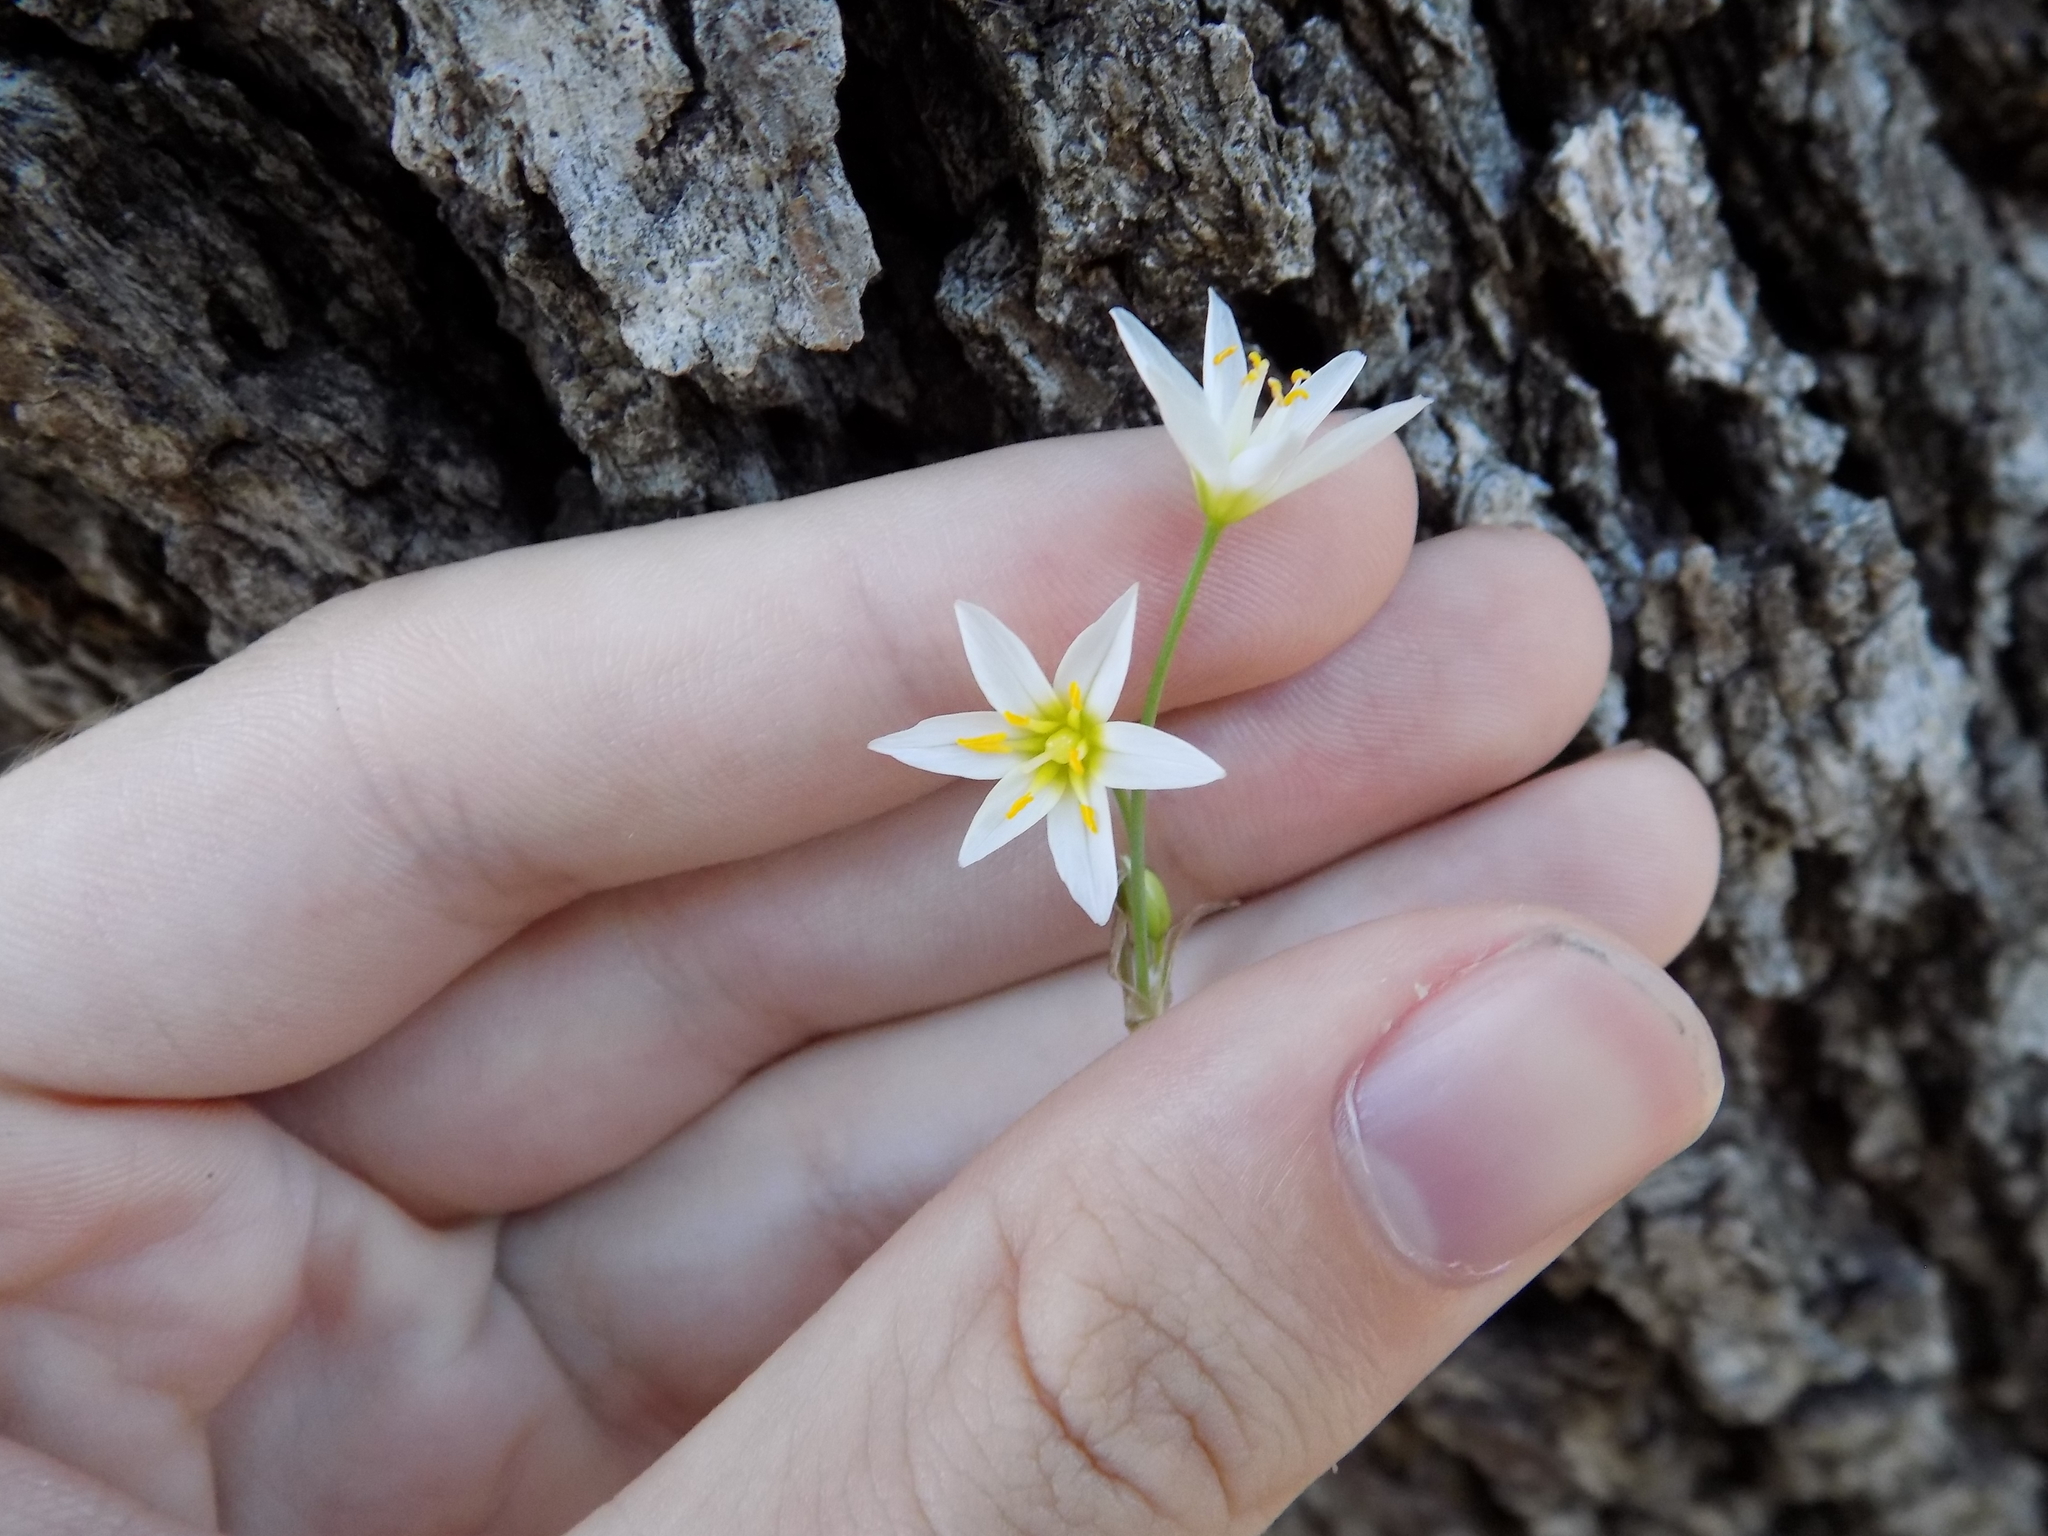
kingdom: Plantae
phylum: Tracheophyta
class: Liliopsida
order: Asparagales
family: Amaryllidaceae
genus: Nothoscordum
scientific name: Nothoscordum bivalve
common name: Crow-poison
